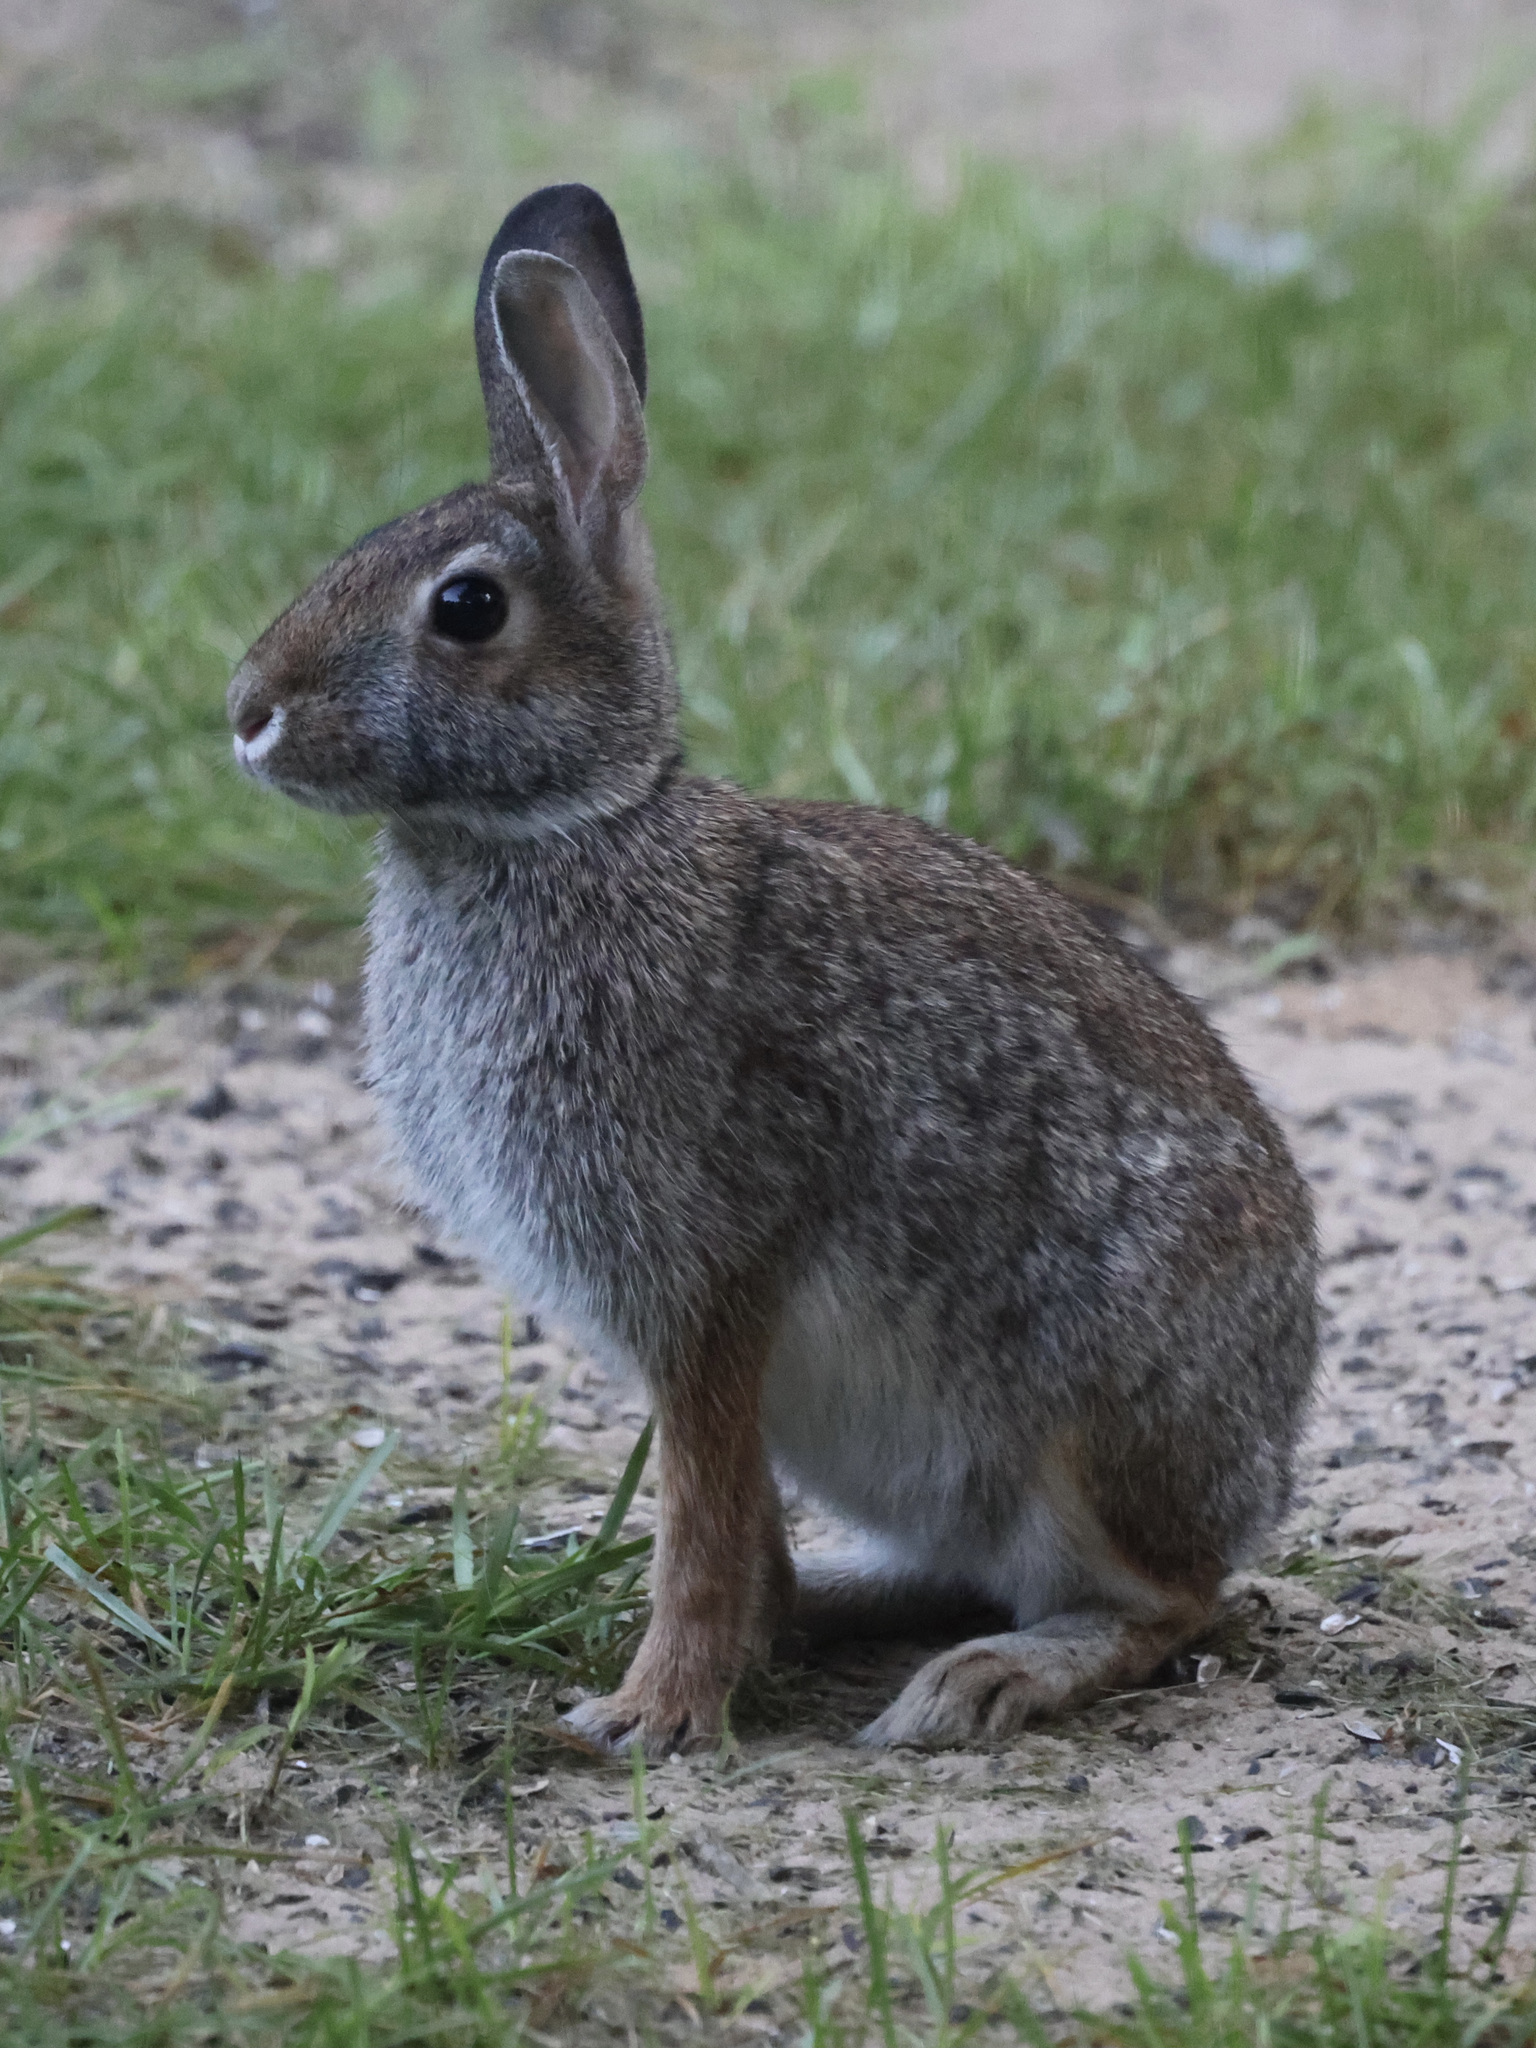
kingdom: Animalia
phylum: Chordata
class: Mammalia
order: Lagomorpha
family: Leporidae
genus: Sylvilagus
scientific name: Sylvilagus floridanus
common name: Eastern cottontail
